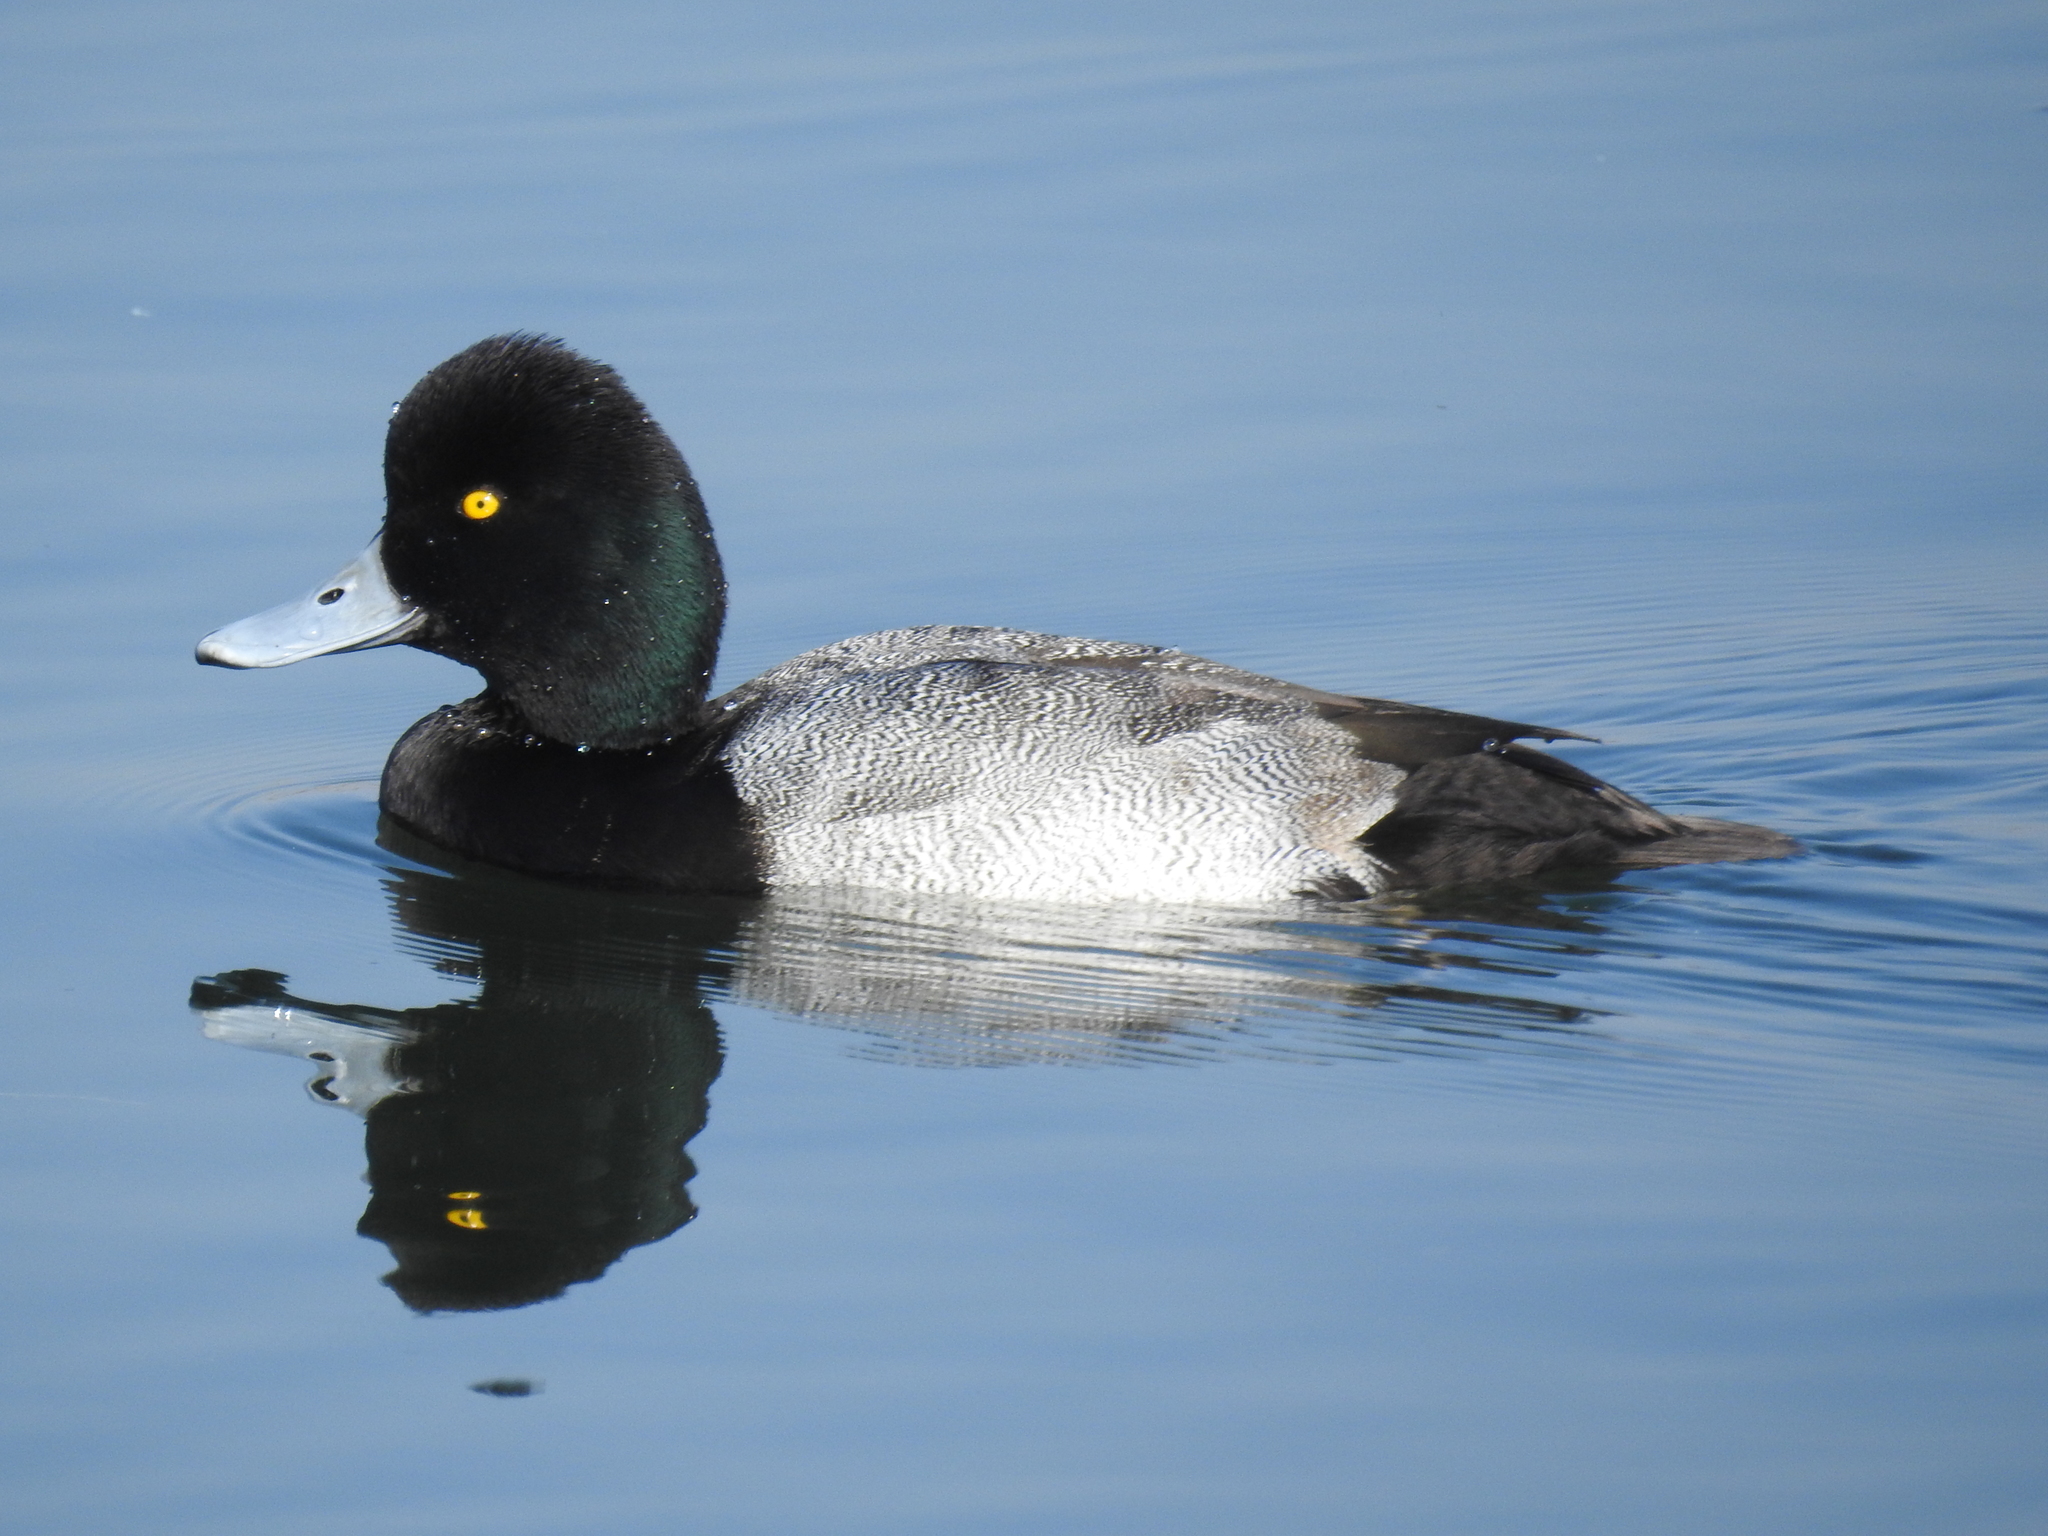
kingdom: Animalia
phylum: Chordata
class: Aves
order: Anseriformes
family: Anatidae
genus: Aythya
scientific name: Aythya affinis
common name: Lesser scaup
